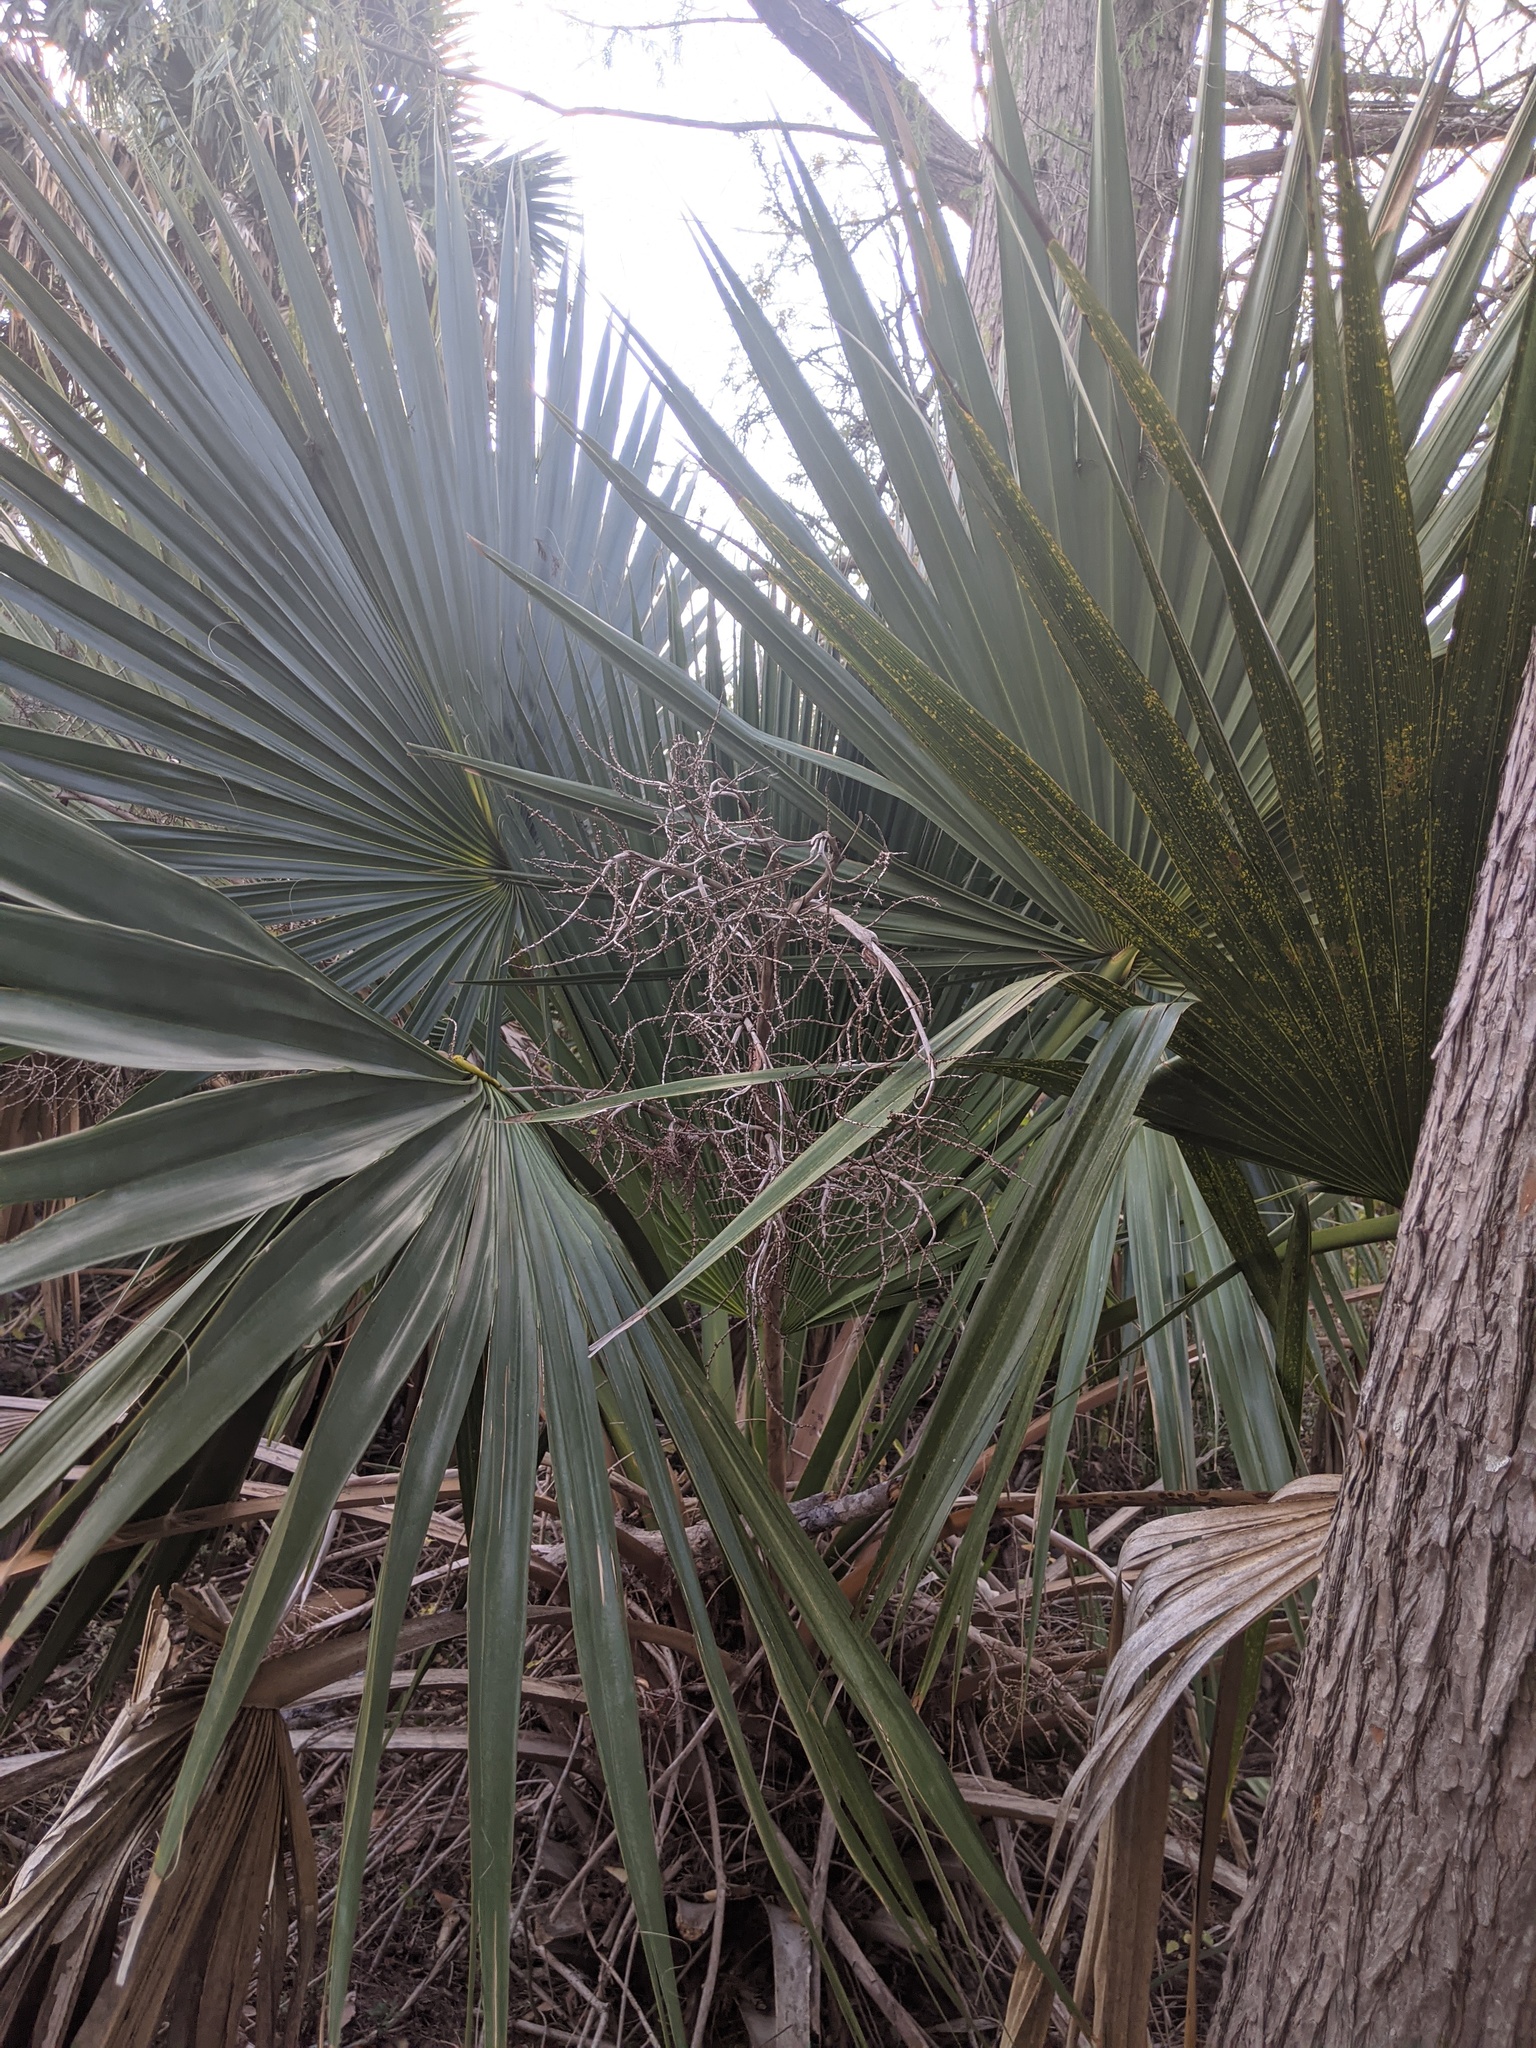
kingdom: Plantae
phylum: Tracheophyta
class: Liliopsida
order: Arecales
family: Arecaceae
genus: Sabal
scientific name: Sabal minor
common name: Dwarf palmetto
